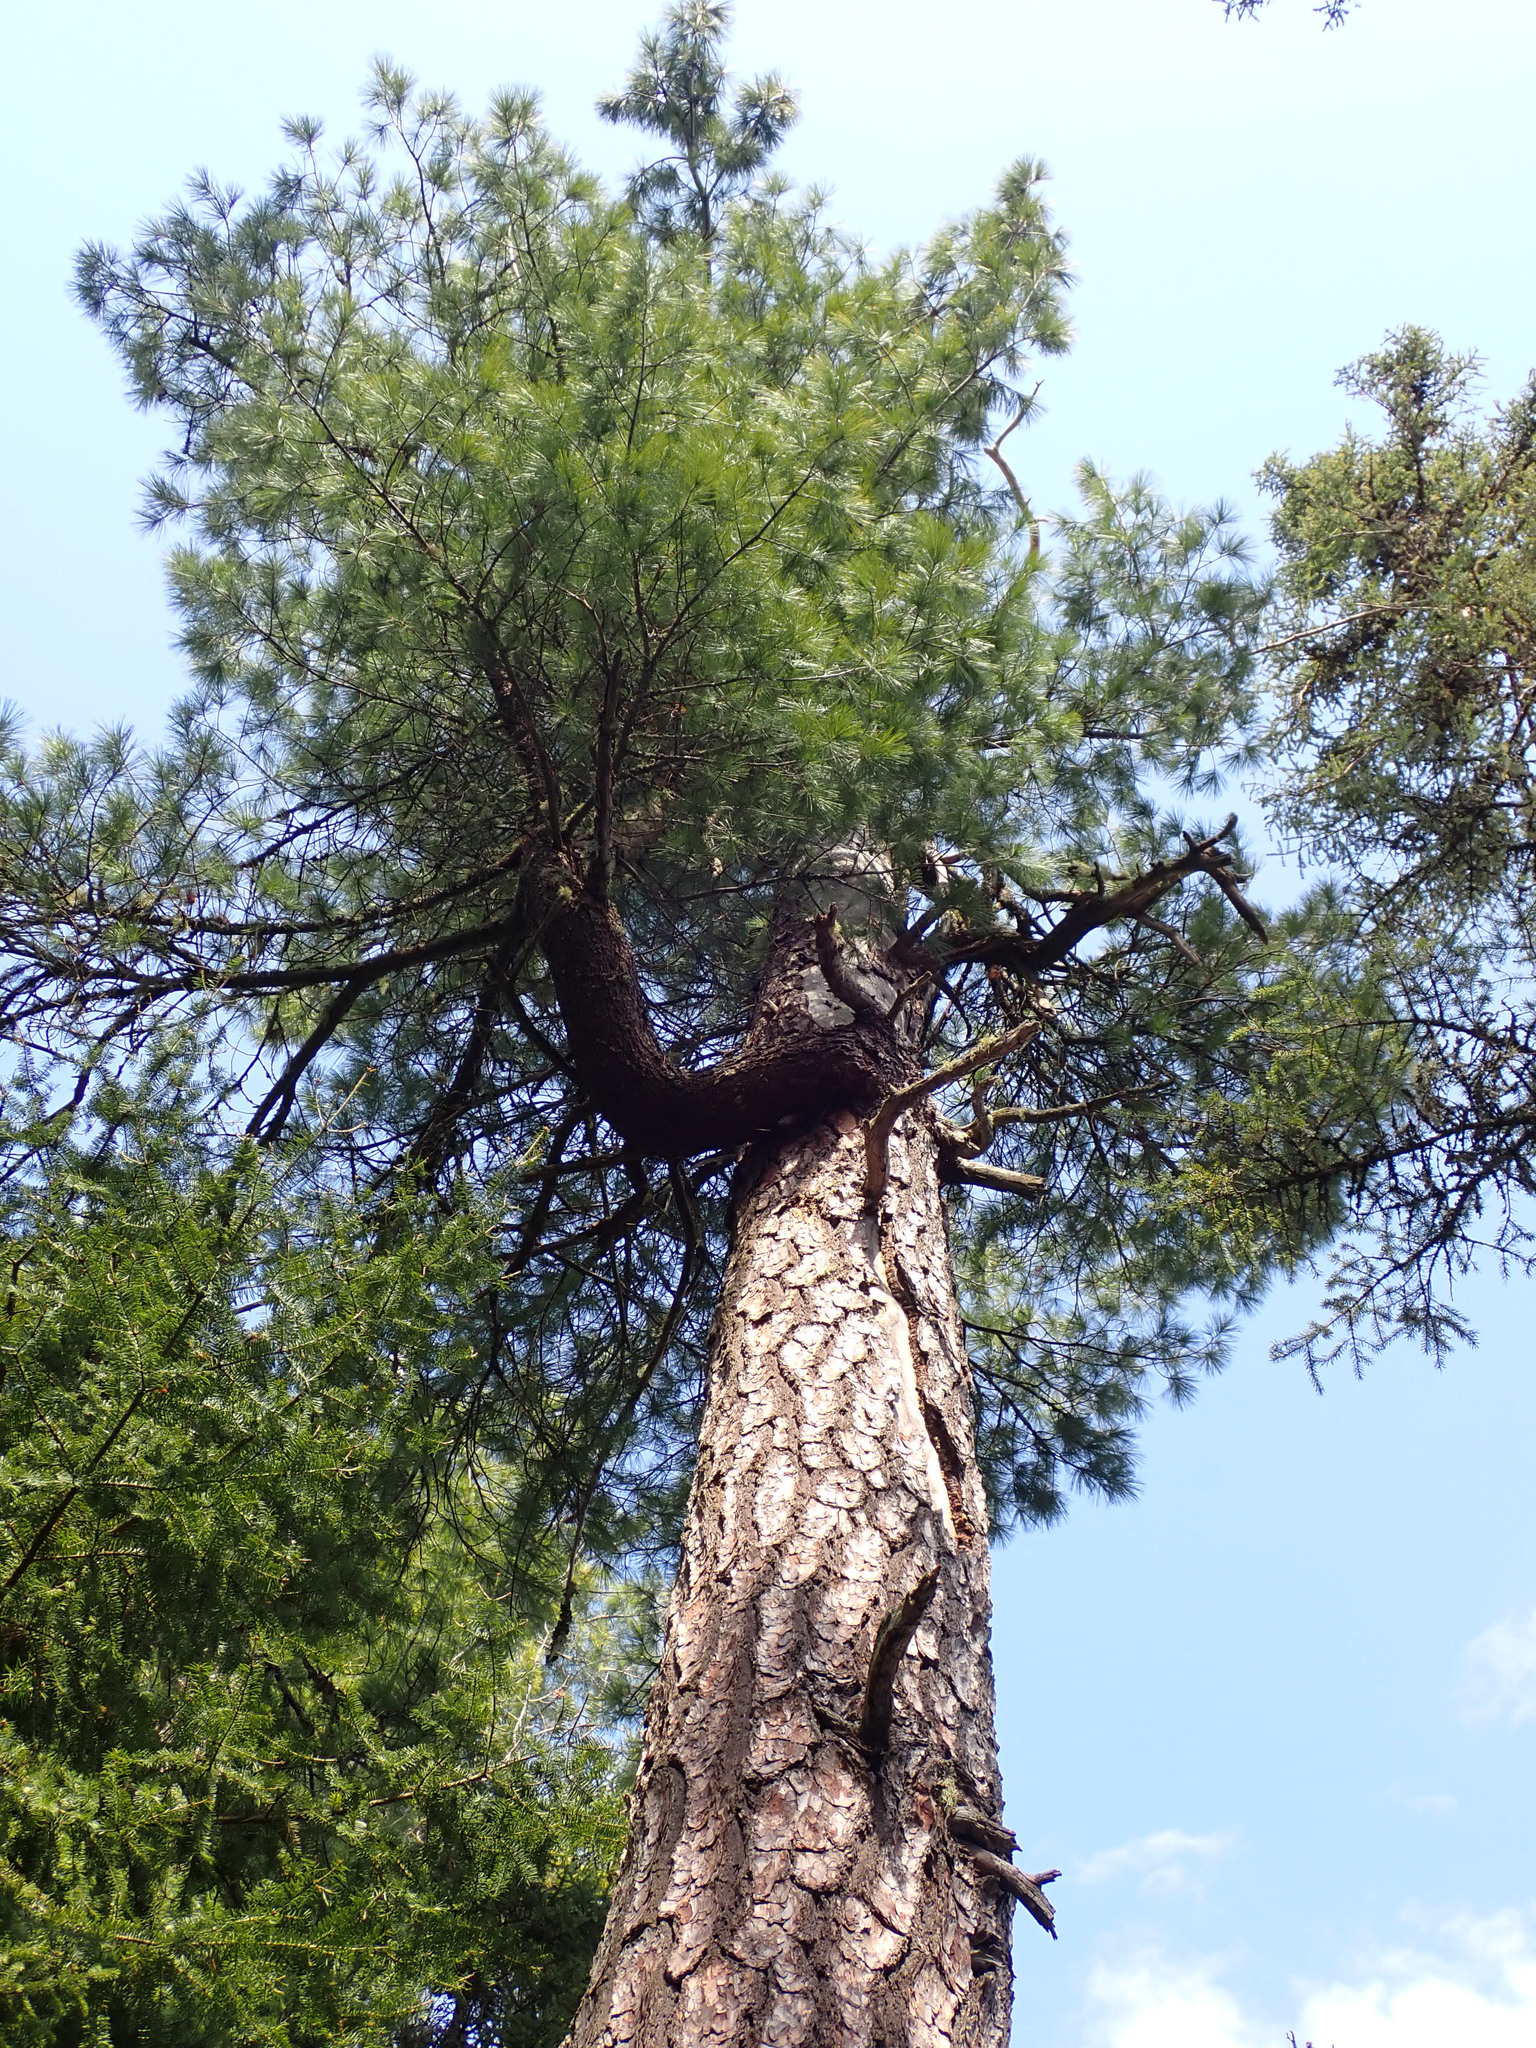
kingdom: Plantae
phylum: Tracheophyta
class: Pinopsida
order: Pinales
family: Pinaceae
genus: Pinus
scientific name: Pinus strobus
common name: Weymouth pine
